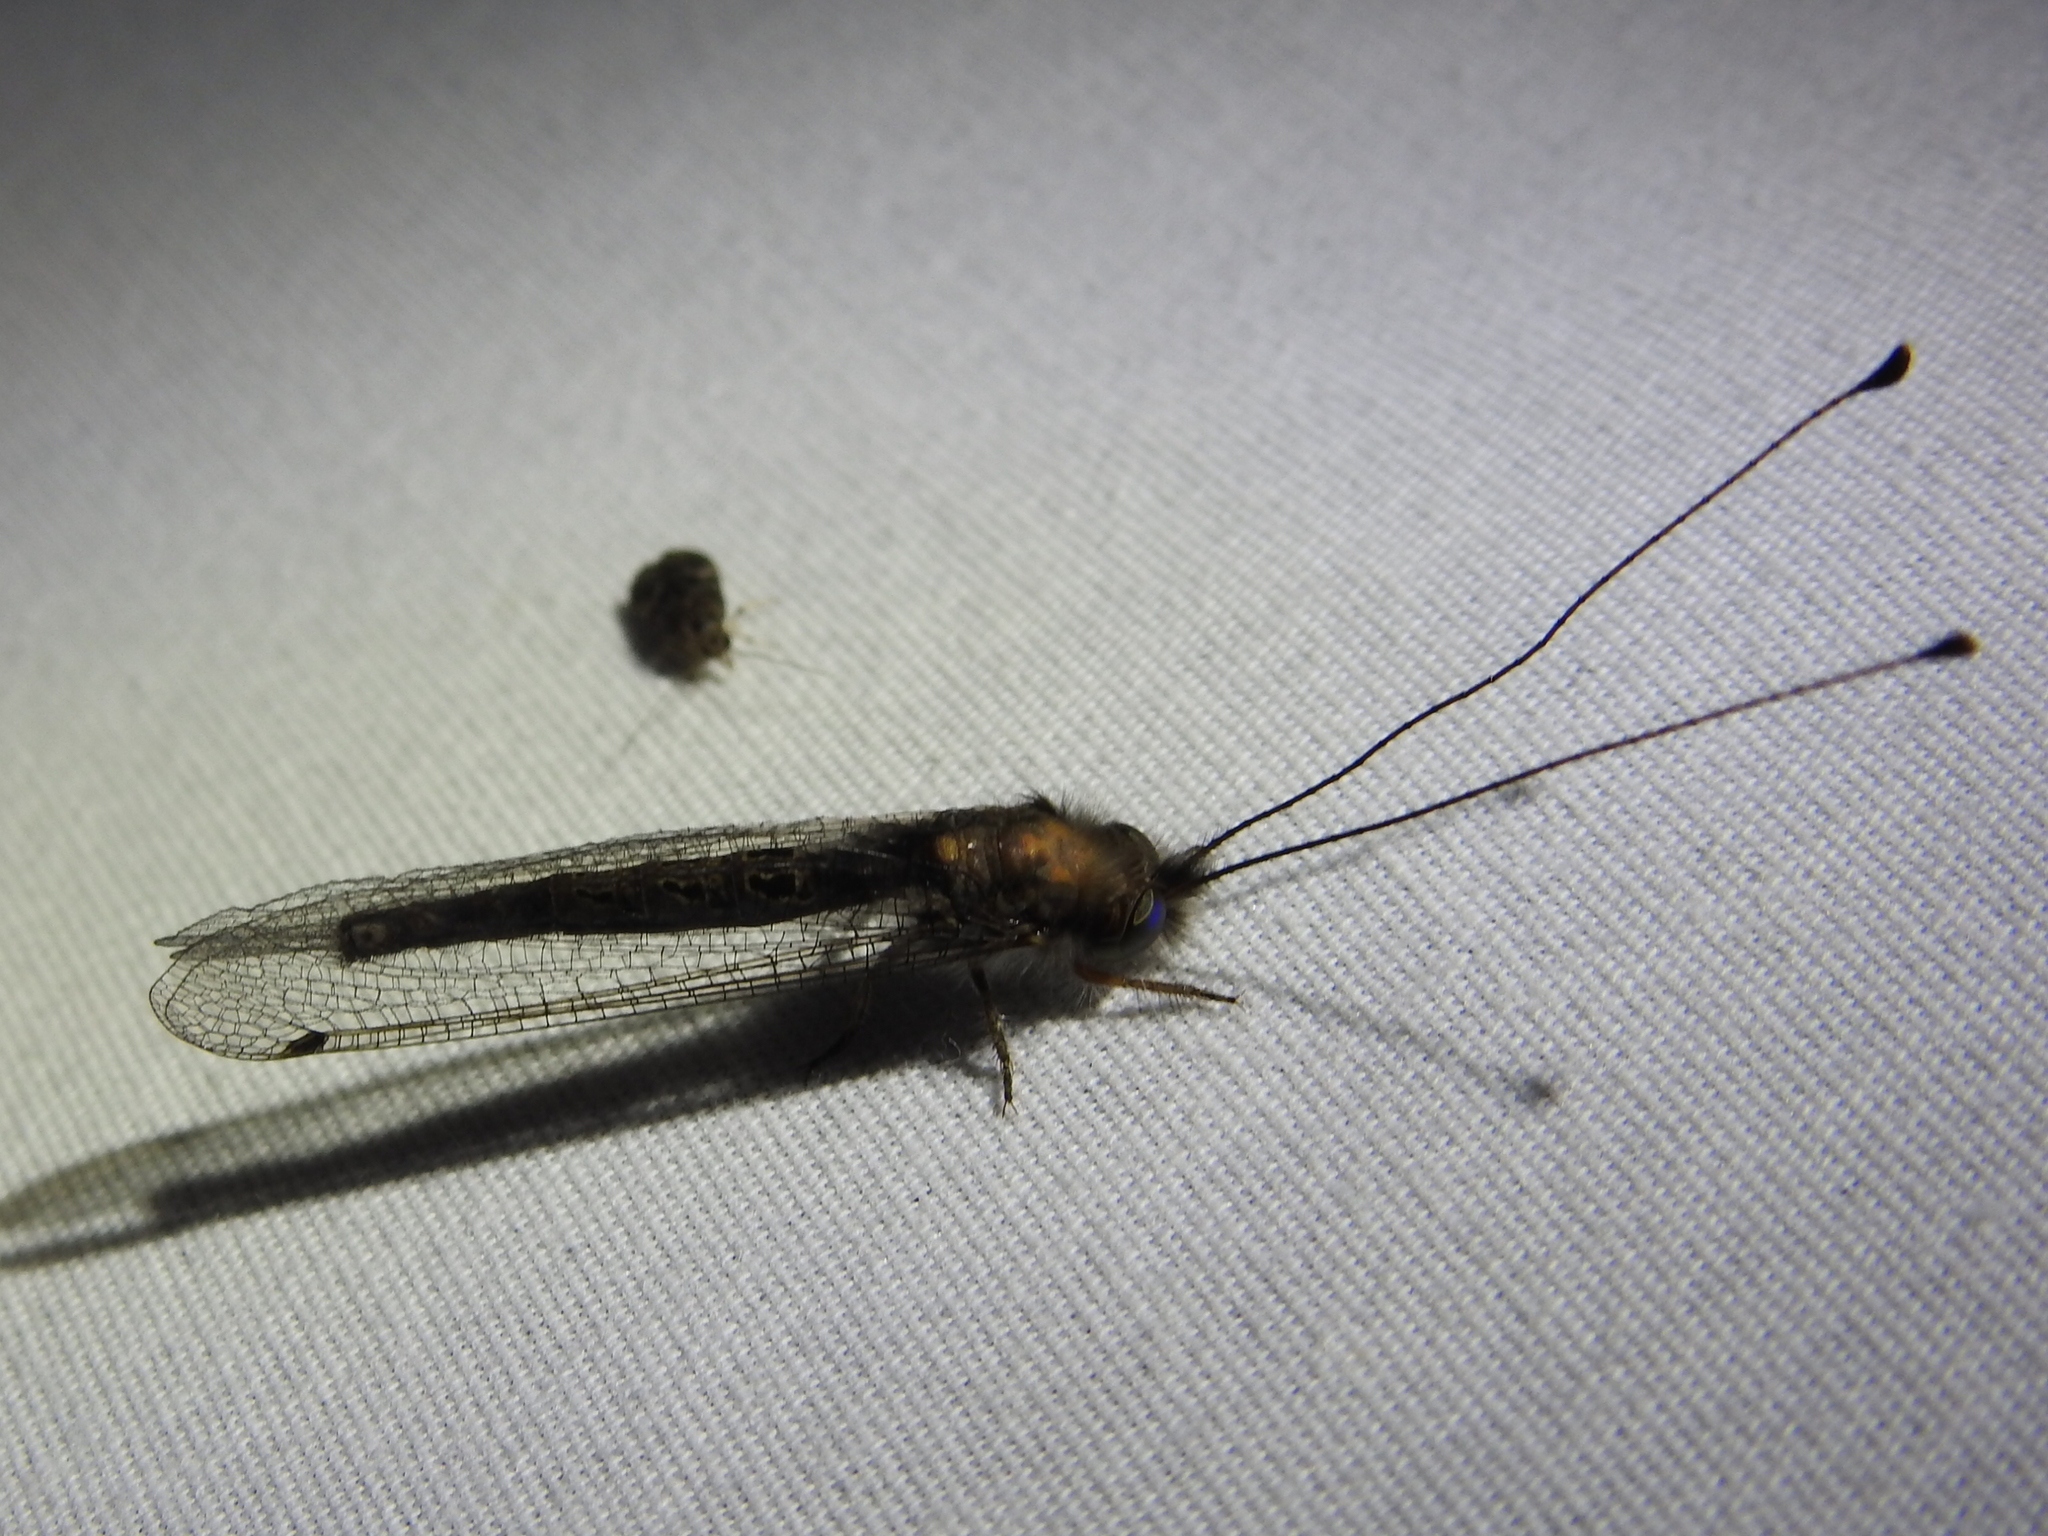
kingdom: Animalia
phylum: Arthropoda
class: Insecta
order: Neuroptera
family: Ascalaphidae
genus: Ululodes
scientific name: Ululodes macleayanus
